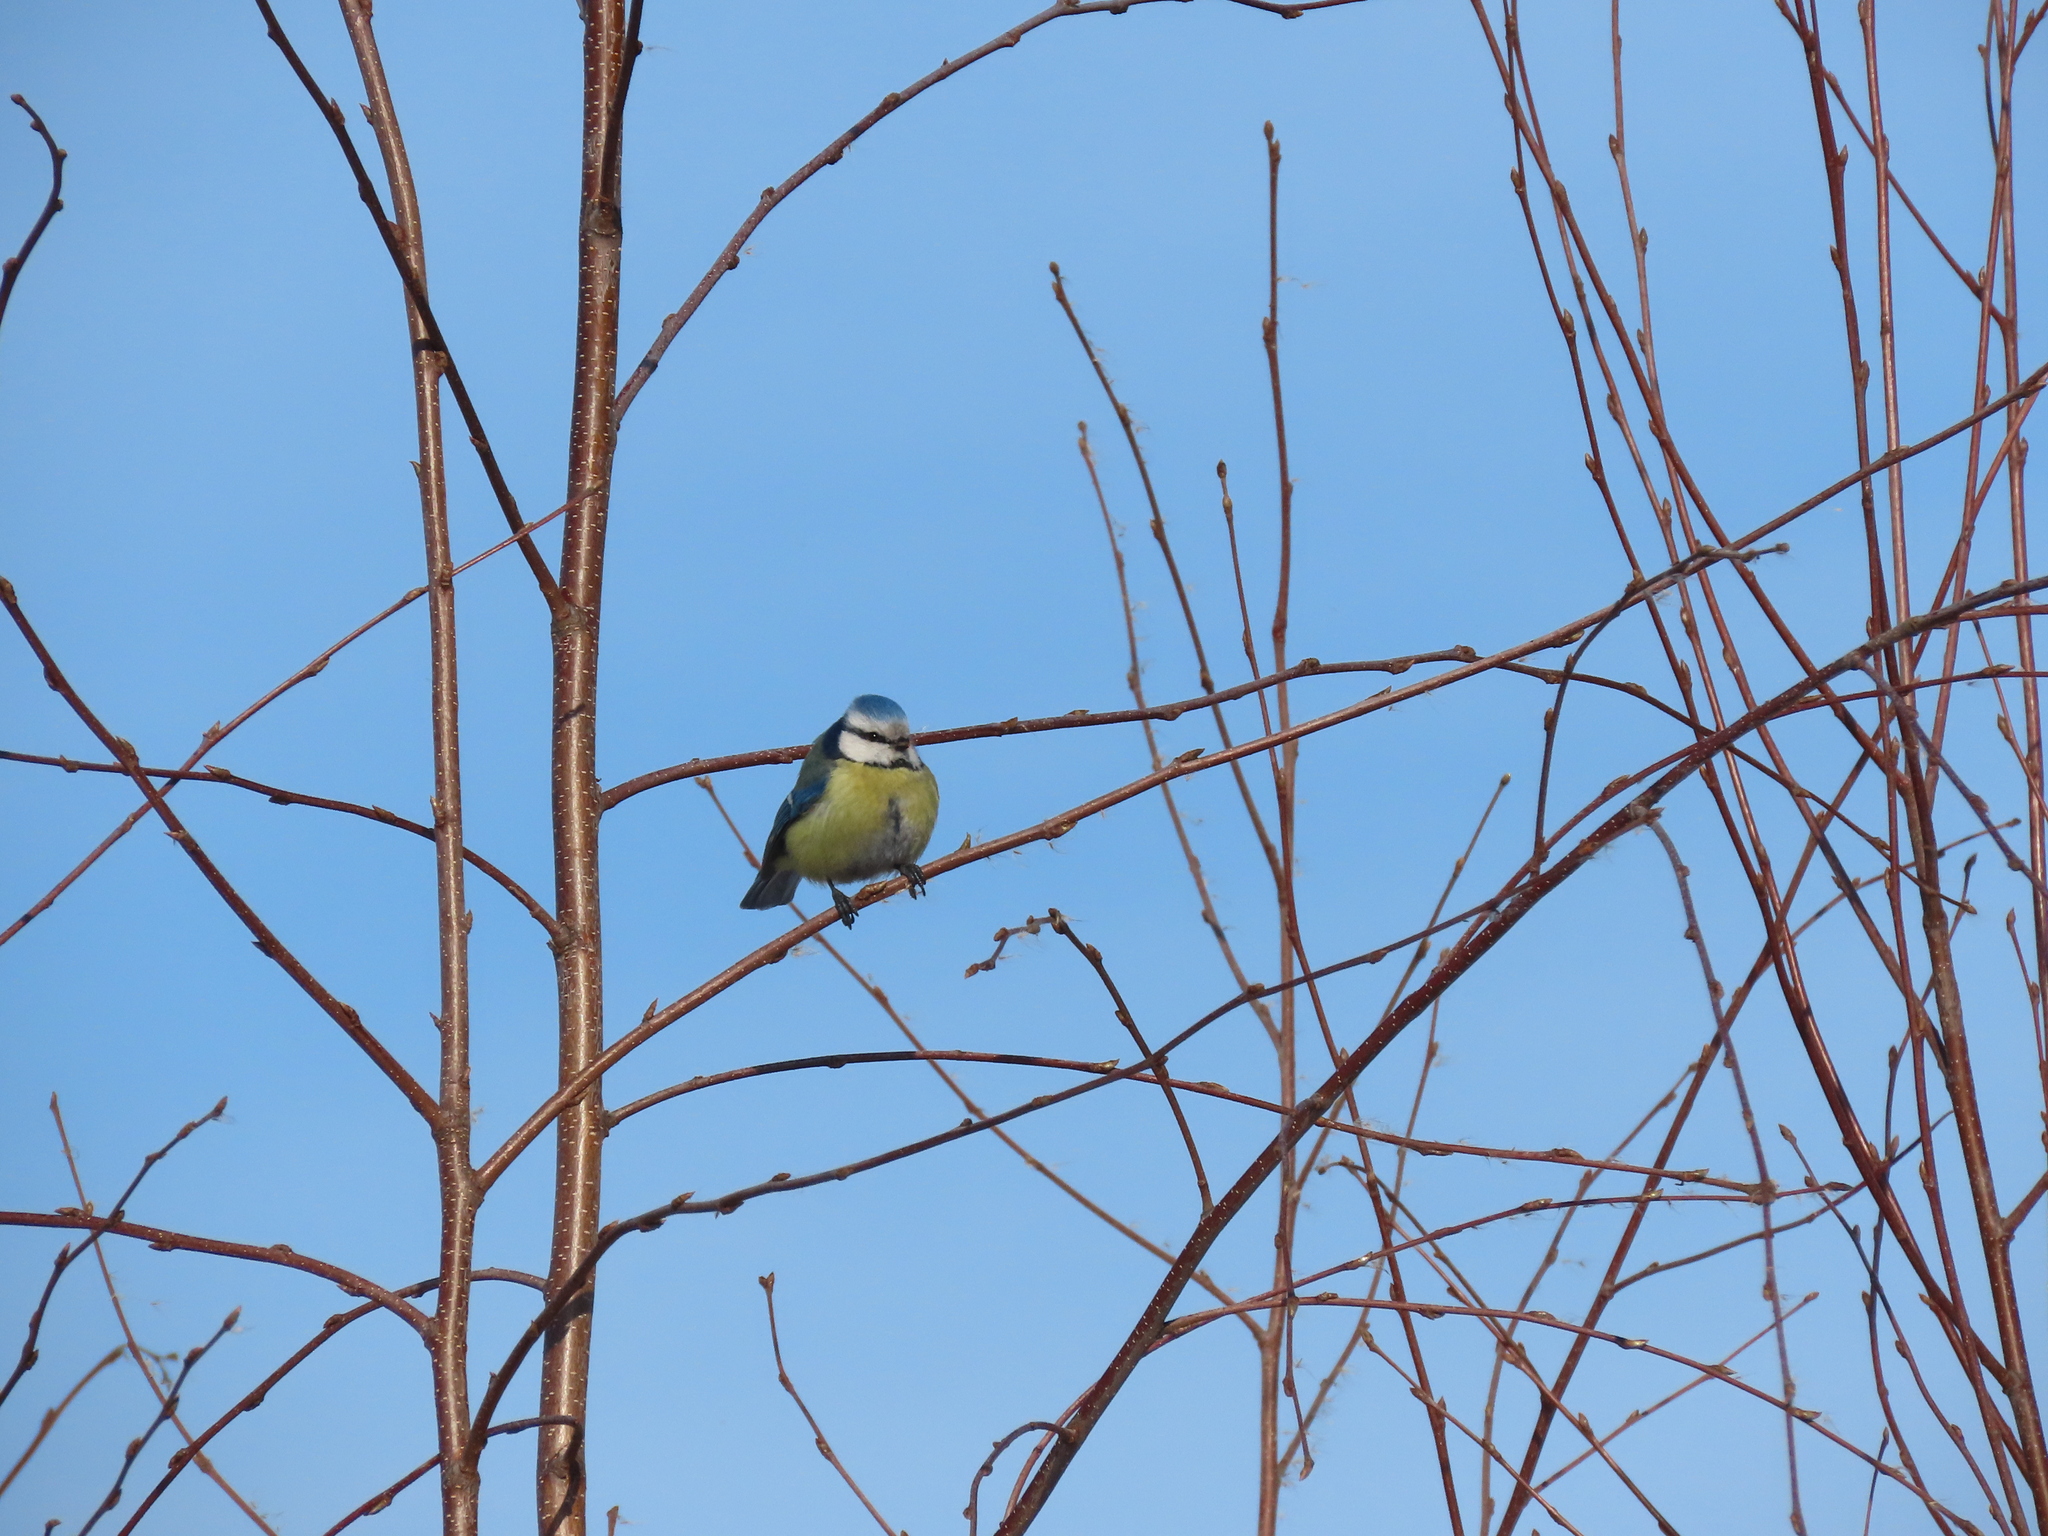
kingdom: Animalia
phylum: Chordata
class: Aves
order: Passeriformes
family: Paridae
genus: Cyanistes
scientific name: Cyanistes caeruleus
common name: Eurasian blue tit
